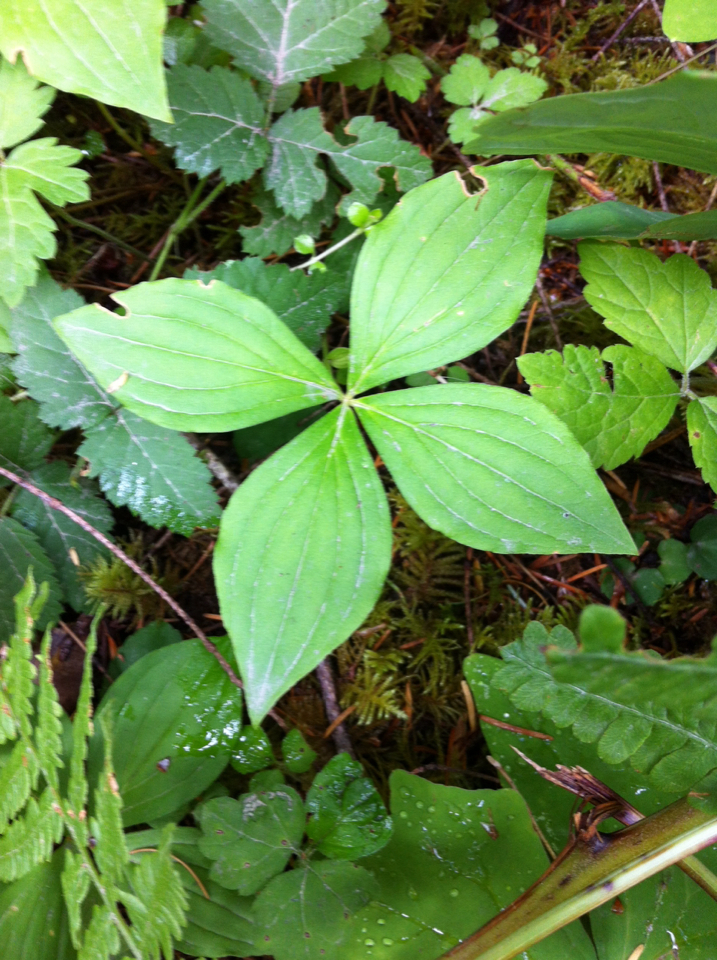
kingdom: Plantae
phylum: Tracheophyta
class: Magnoliopsida
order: Cornales
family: Cornaceae
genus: Cornus
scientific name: Cornus unalaschkensis
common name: Alaska bunchberry
